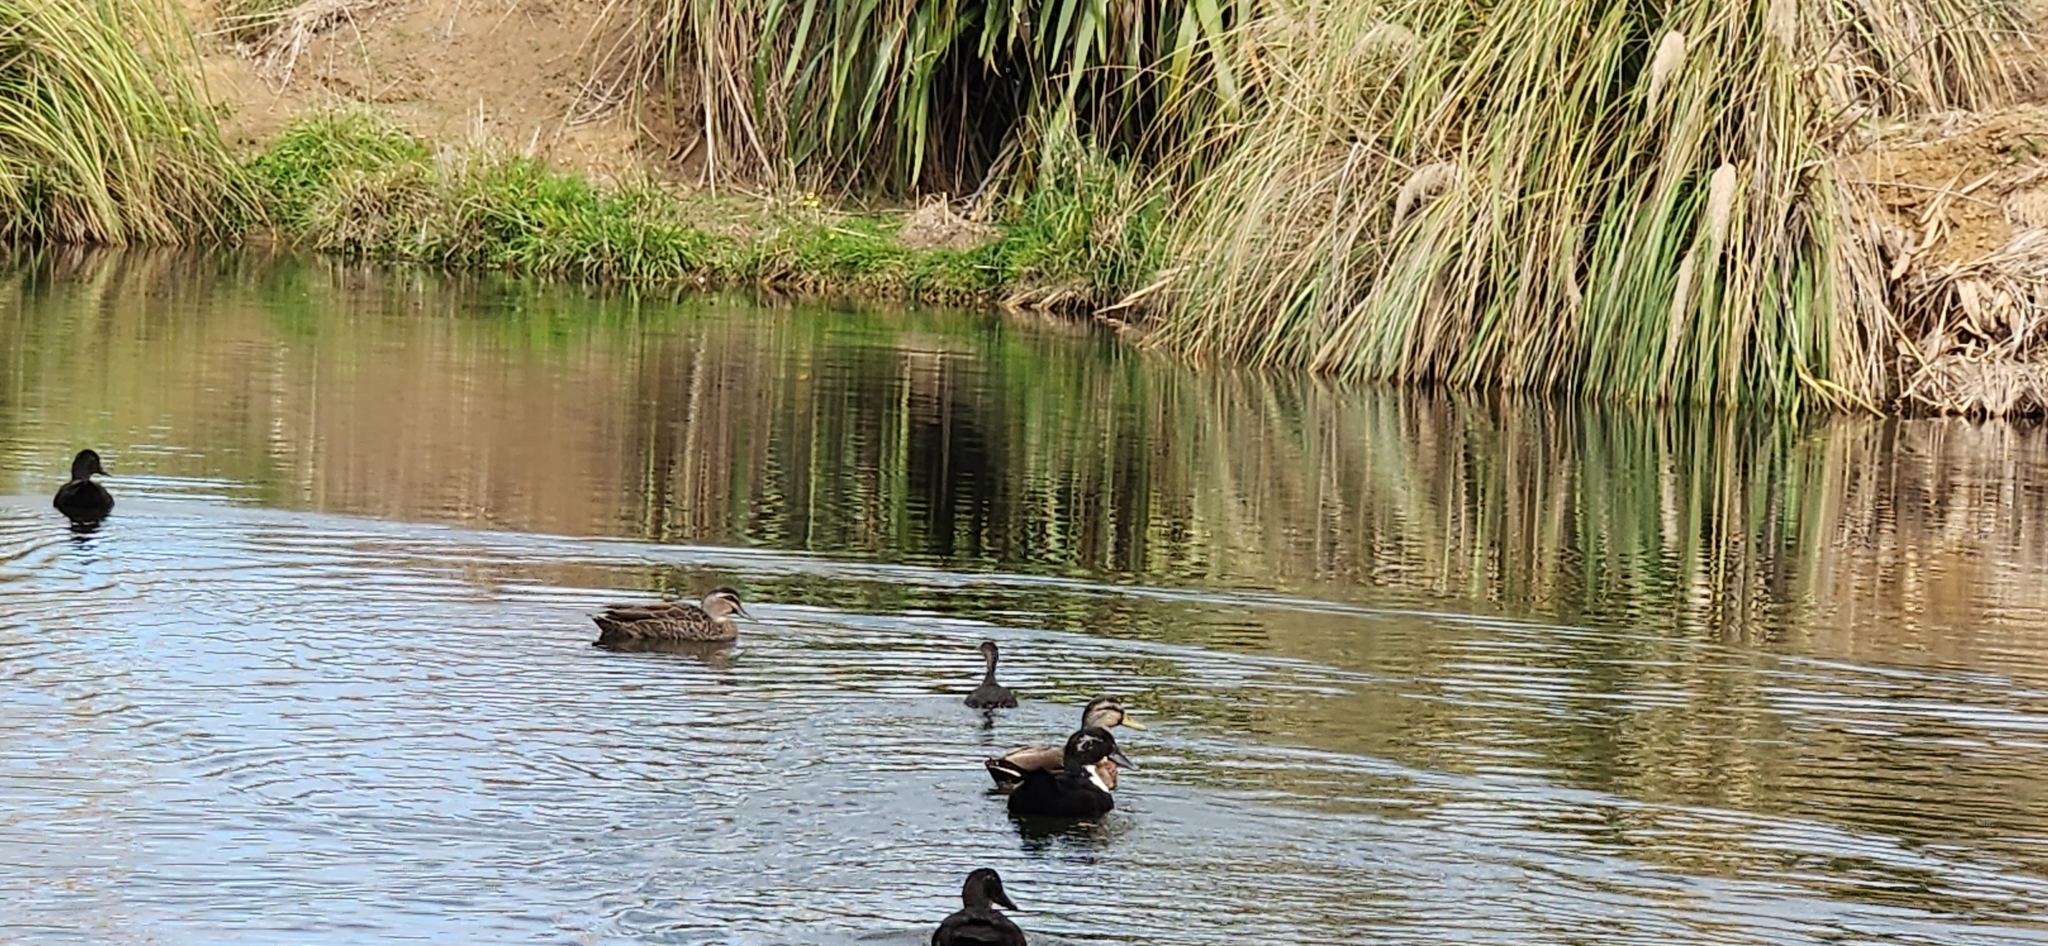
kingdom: Animalia
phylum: Chordata
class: Aves
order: Podicipediformes
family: Podicipedidae
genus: Poliocephalus
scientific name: Poliocephalus rufopectus
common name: New zealand grebe
